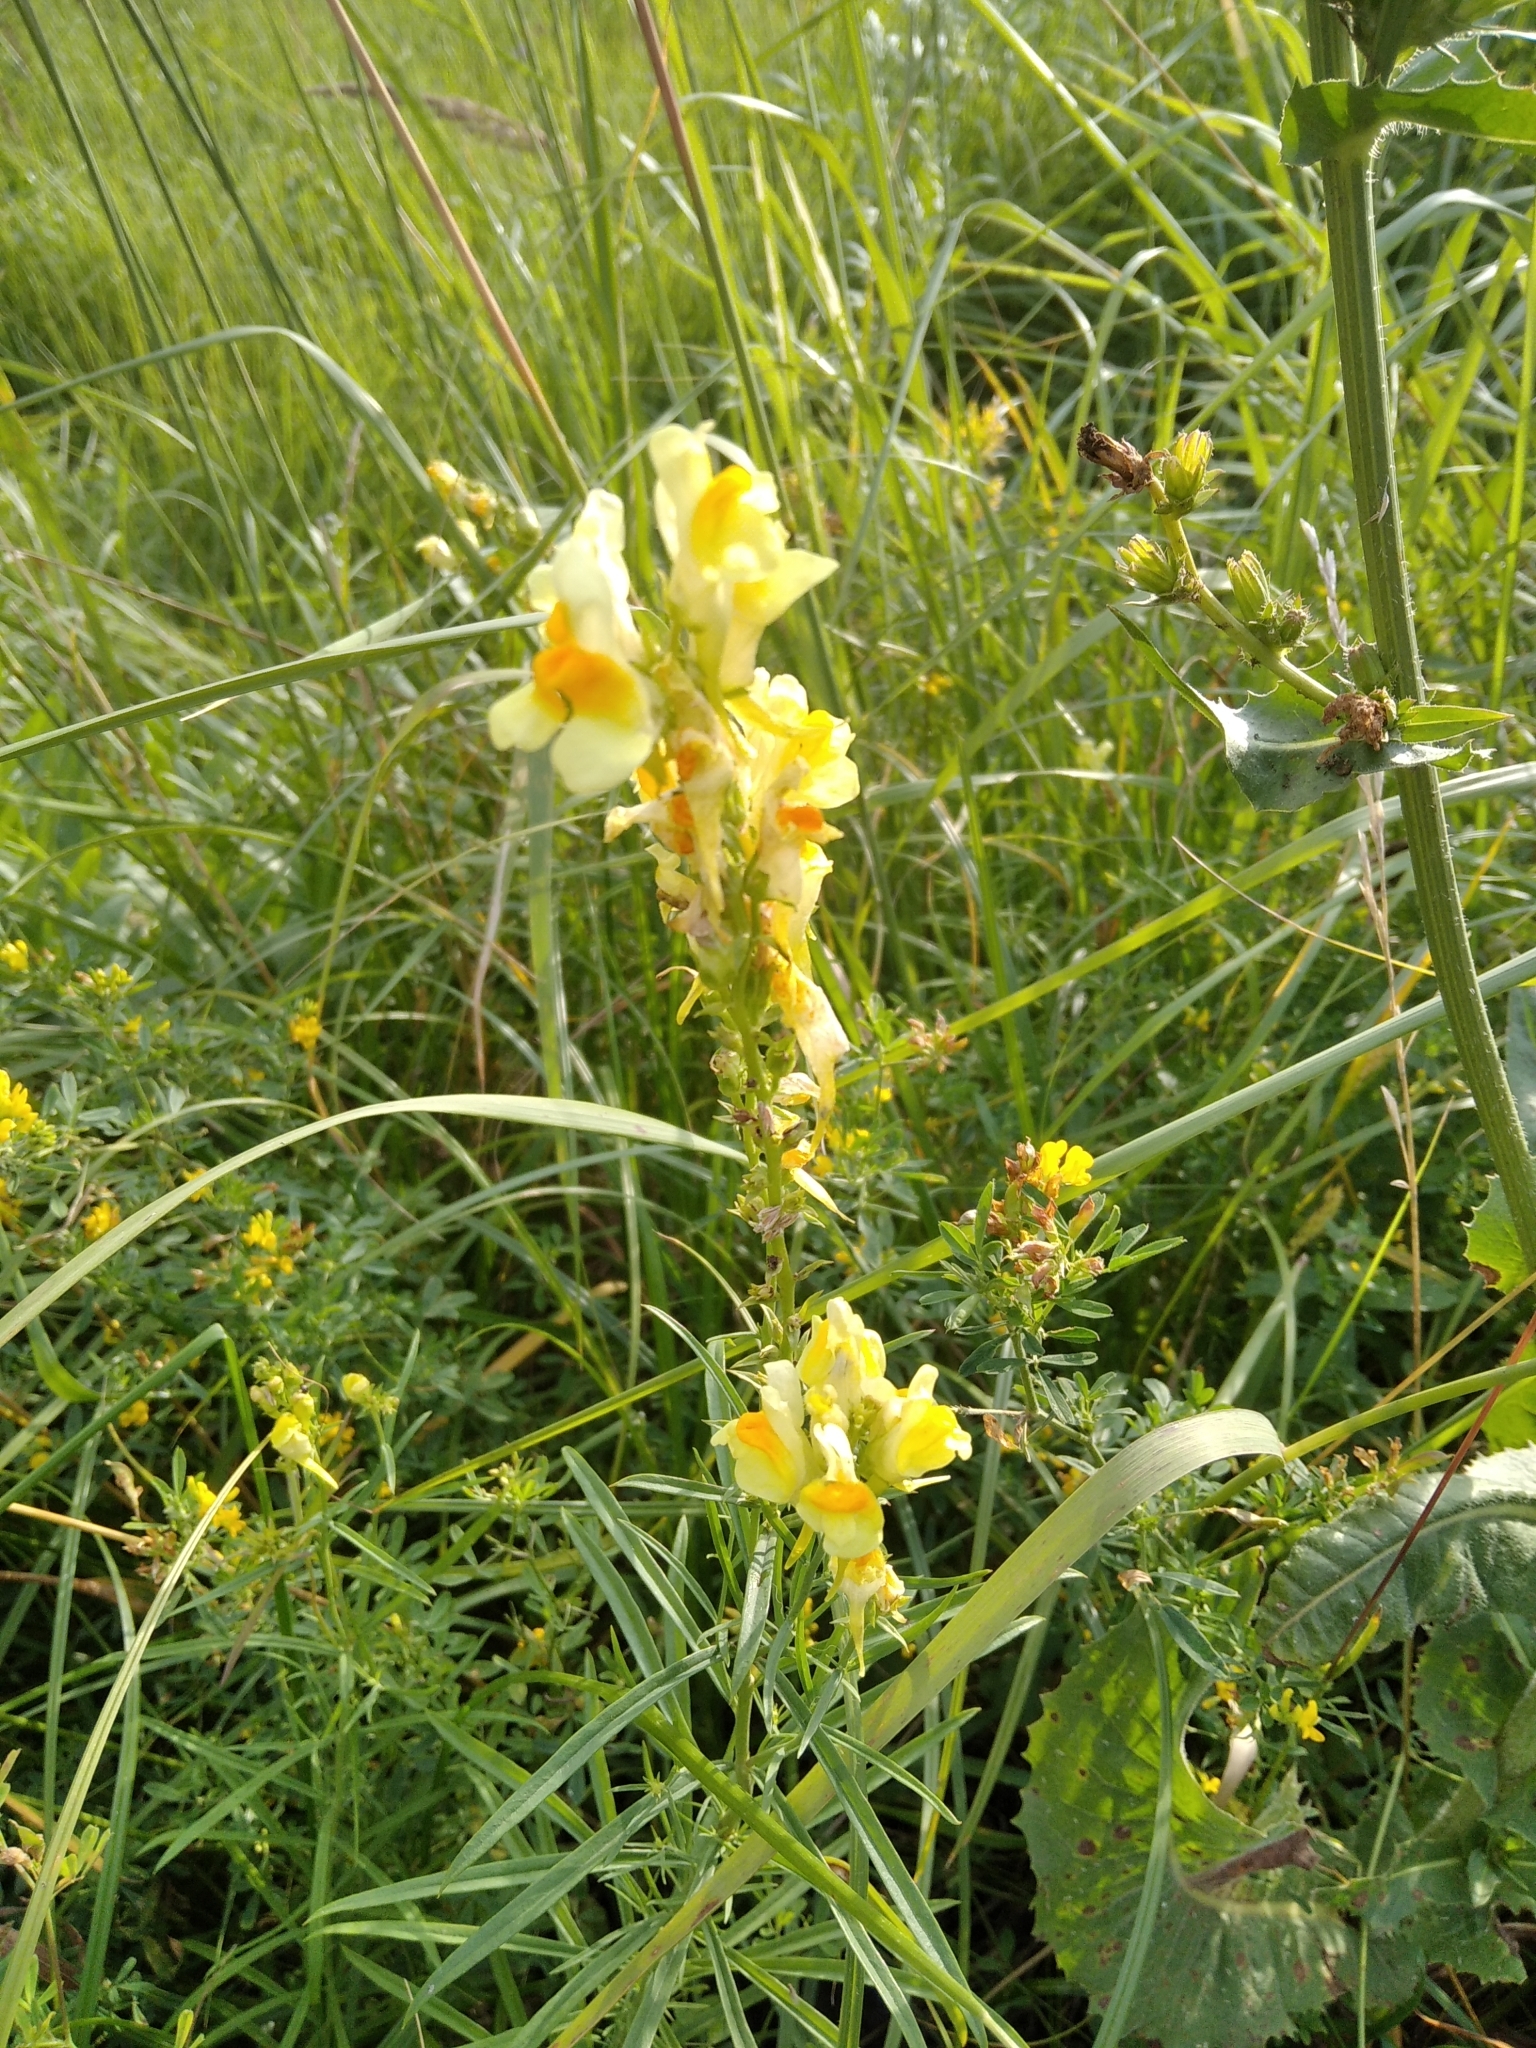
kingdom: Plantae
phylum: Tracheophyta
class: Magnoliopsida
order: Lamiales
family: Plantaginaceae
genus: Linaria
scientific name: Linaria vulgaris
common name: Butter and eggs
